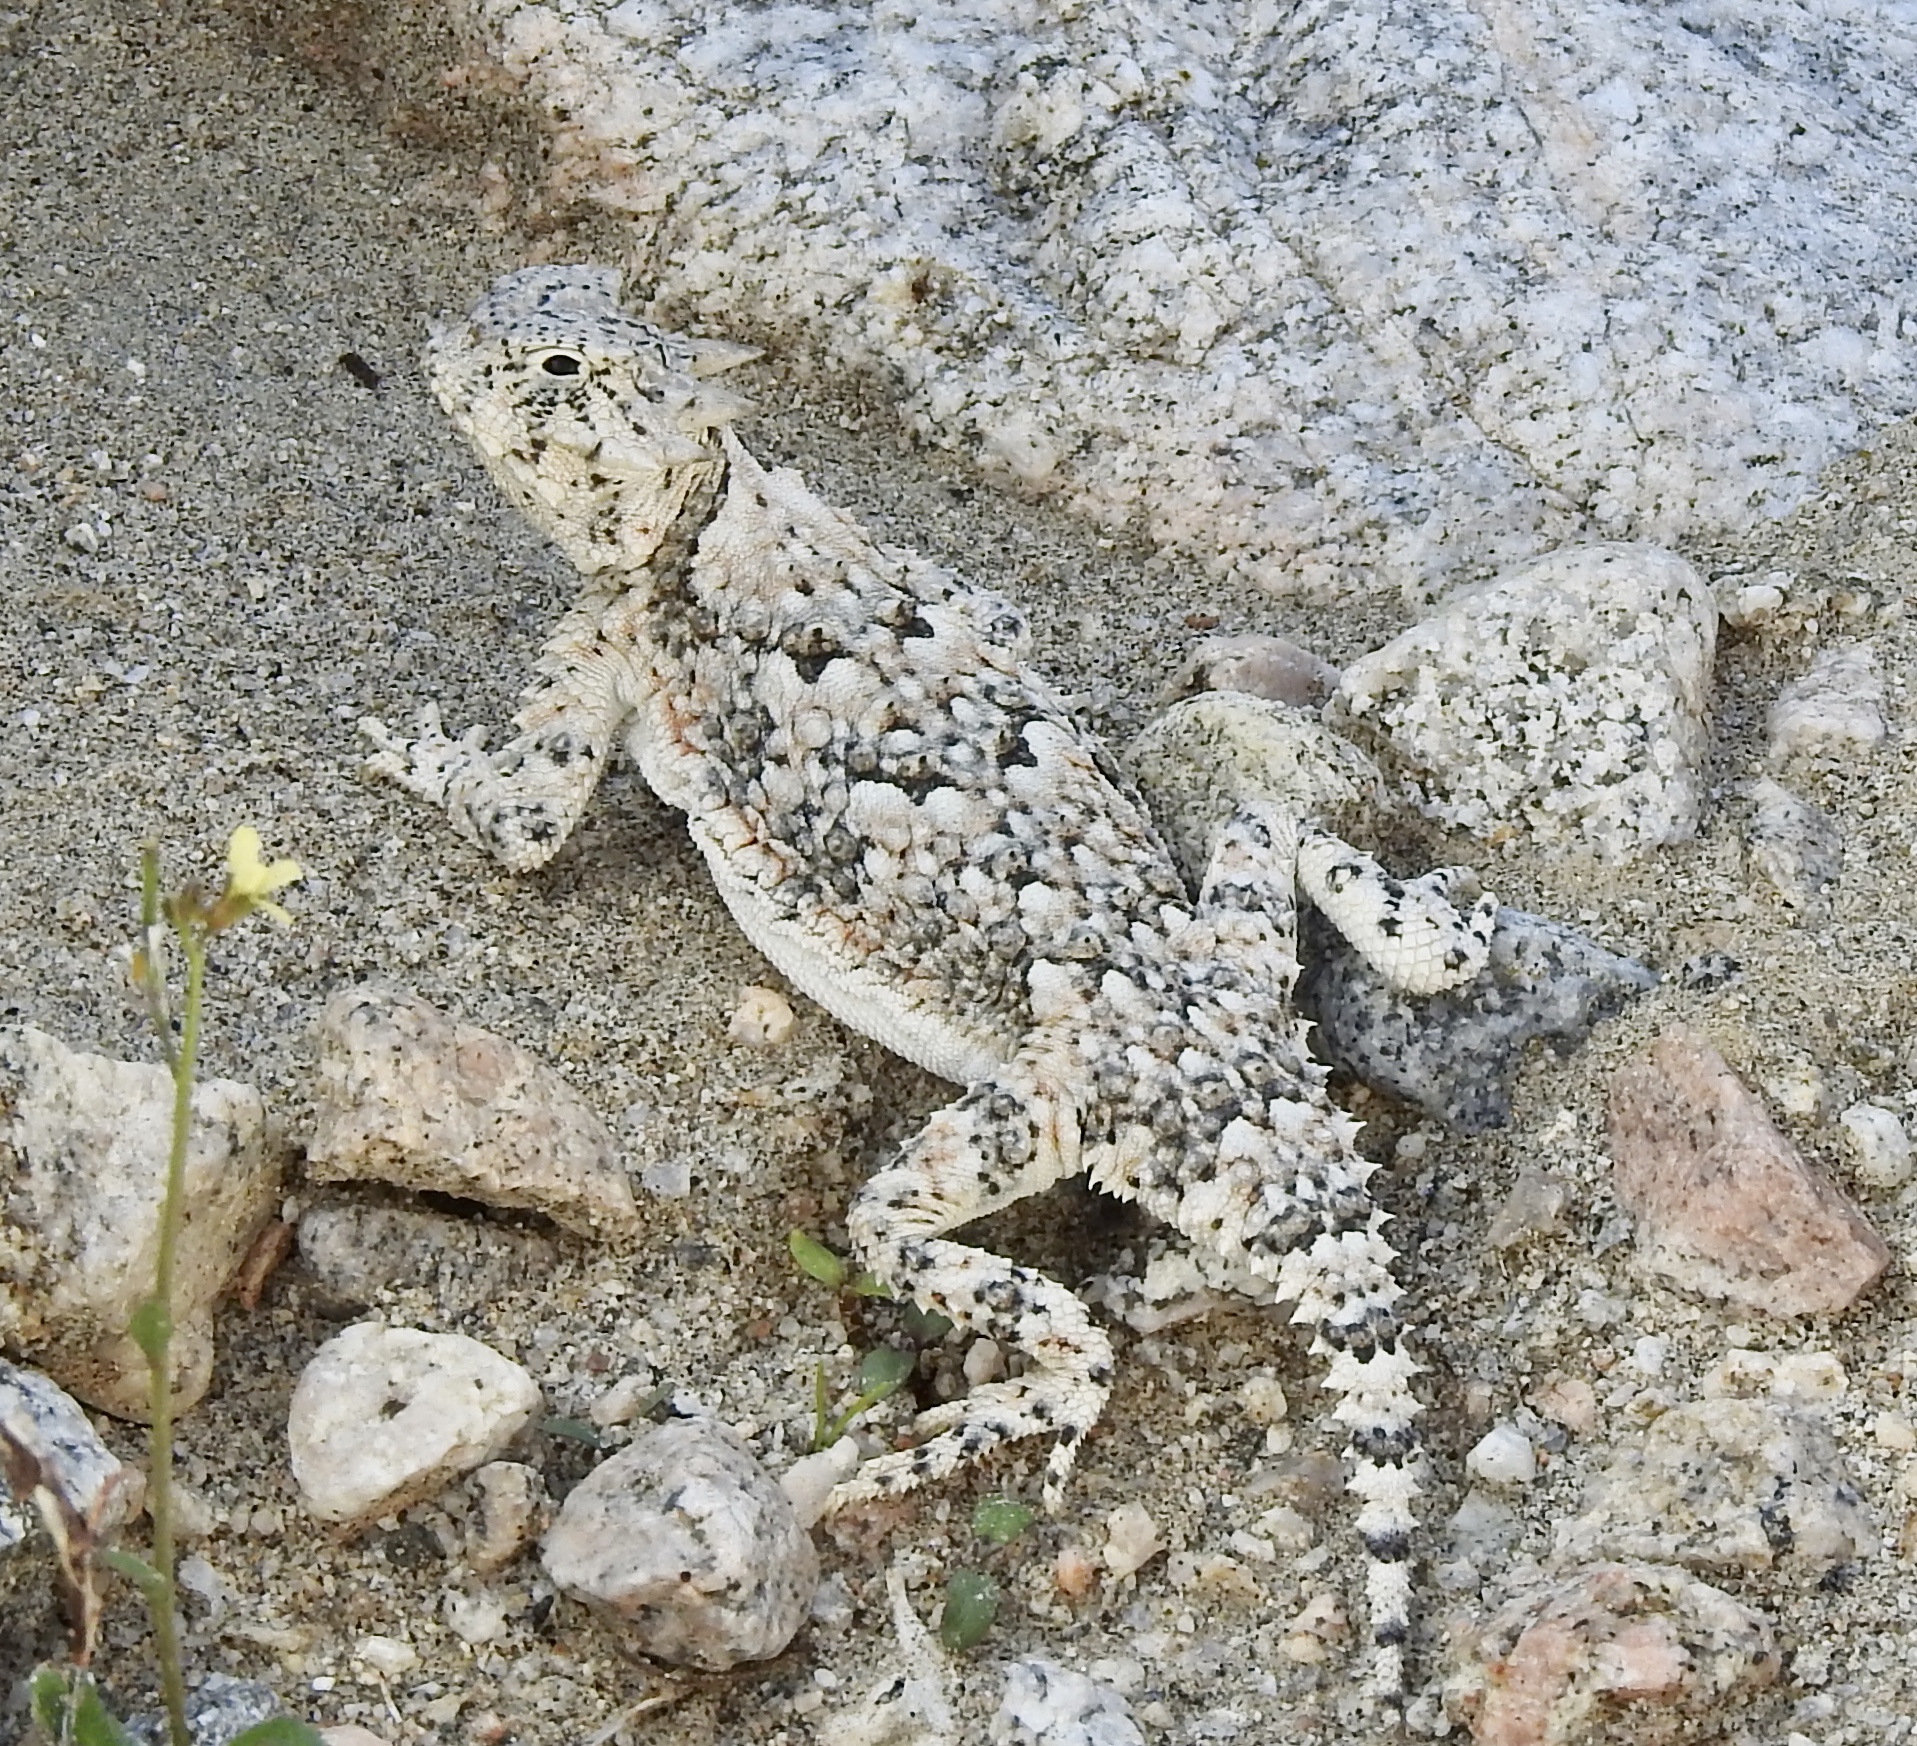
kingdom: Animalia
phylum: Chordata
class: Squamata
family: Phrynosomatidae
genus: Phrynosoma
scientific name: Phrynosoma platyrhinos
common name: Desert horned lizard
